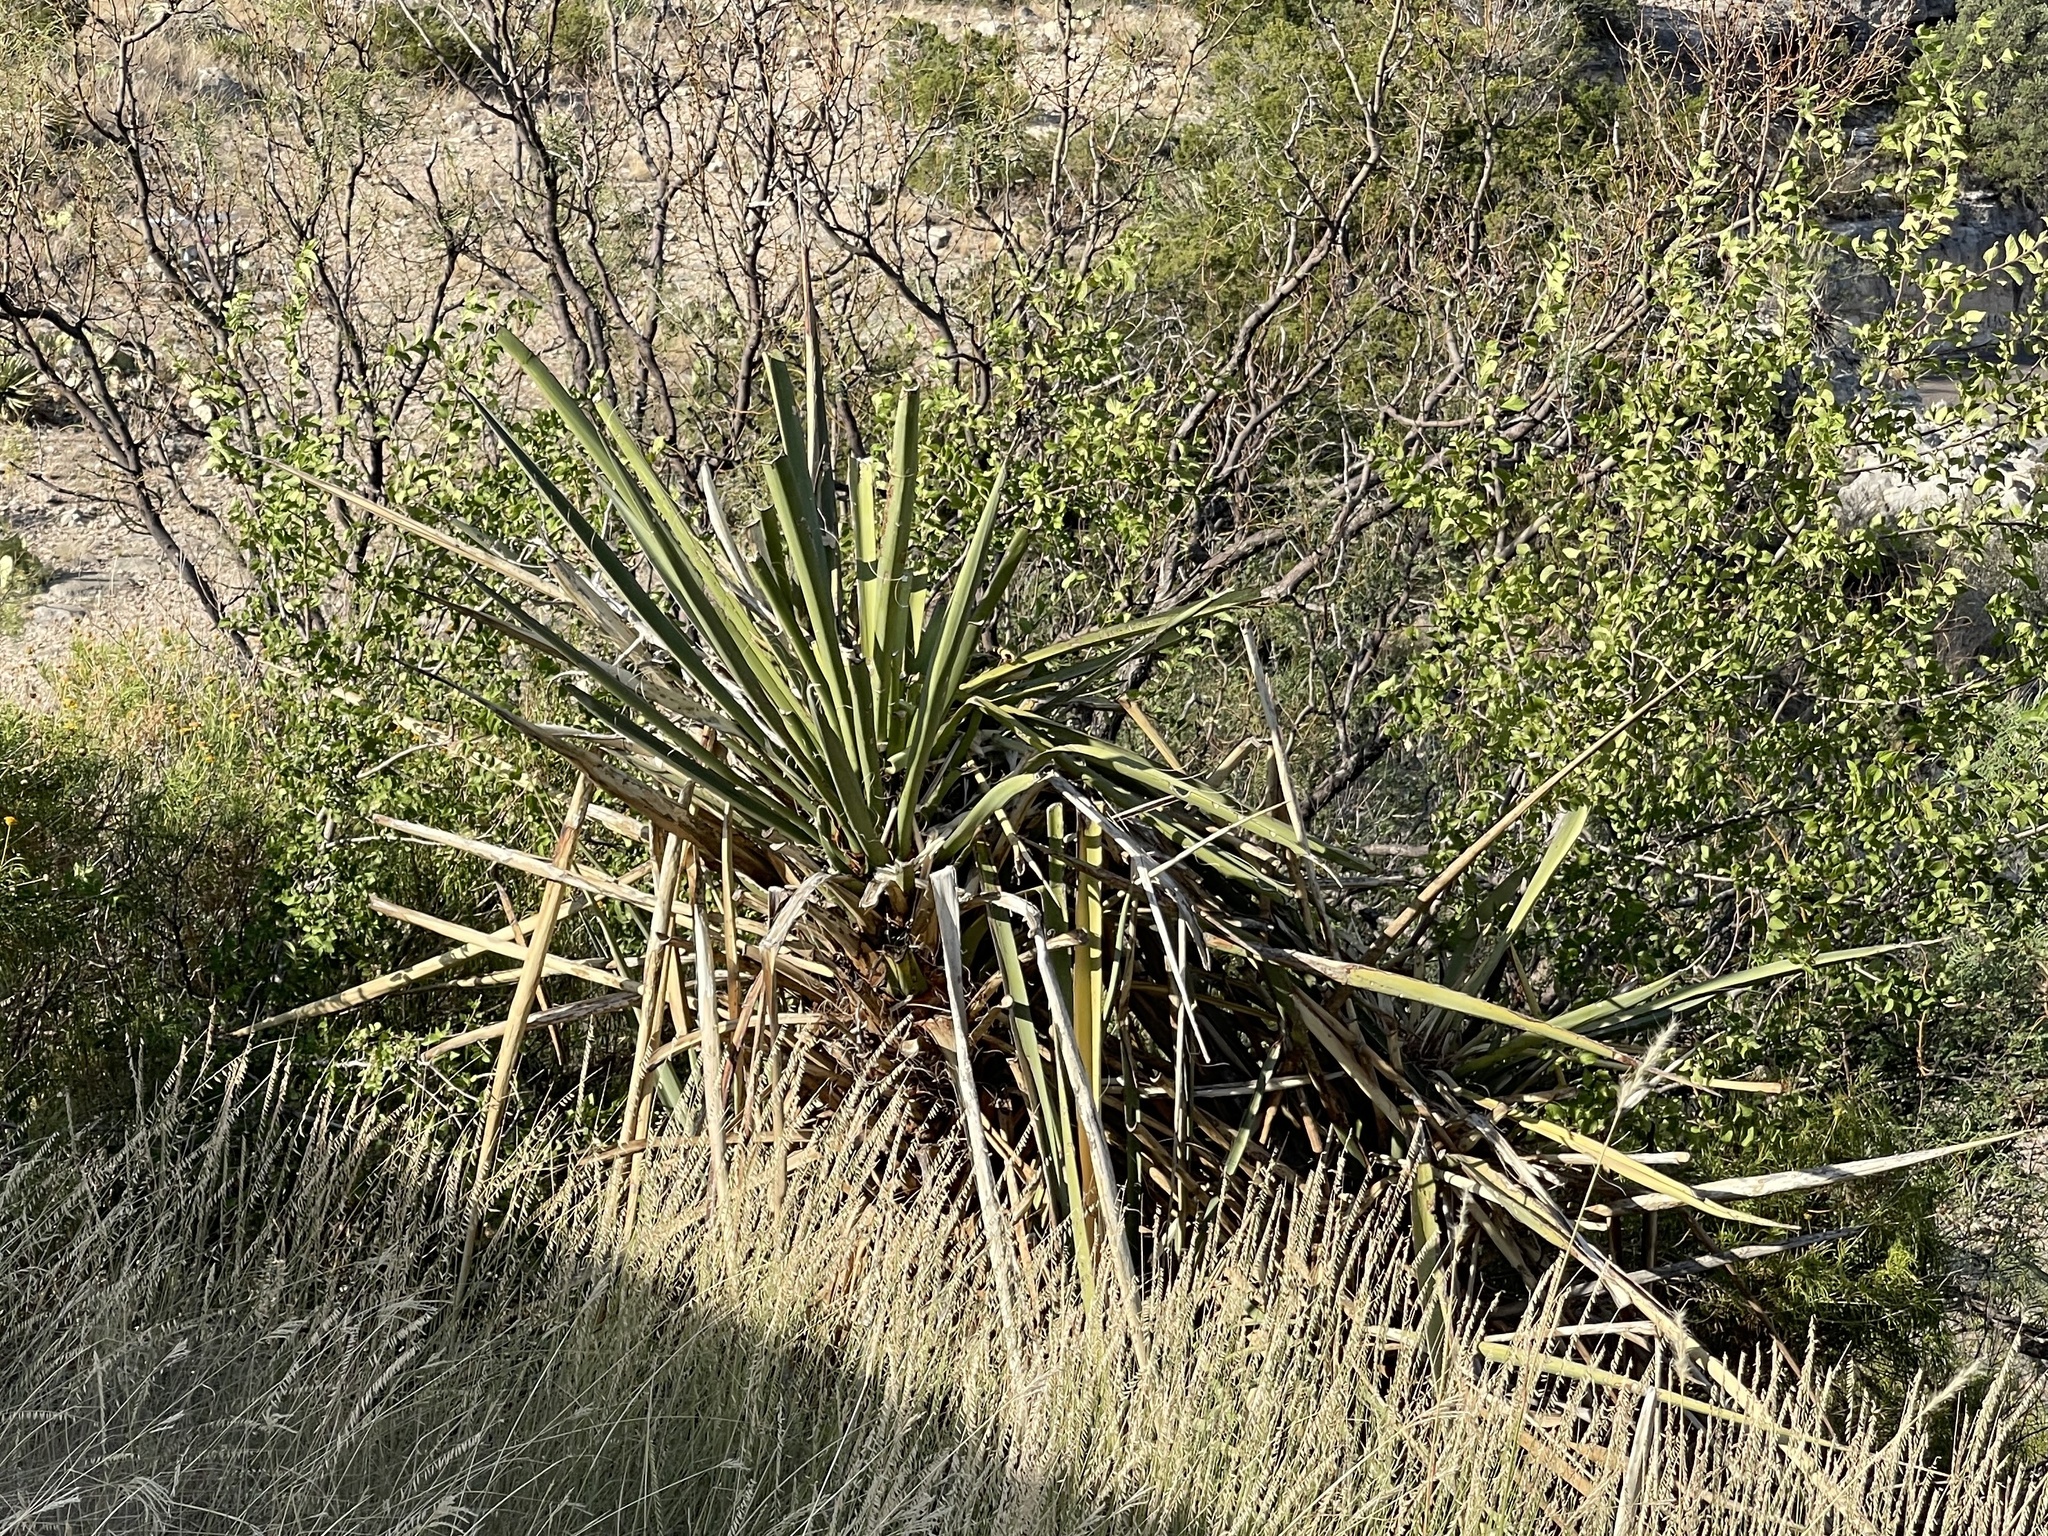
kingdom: Plantae
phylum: Tracheophyta
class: Liliopsida
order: Asparagales
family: Asparagaceae
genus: Yucca
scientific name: Yucca treculiana
